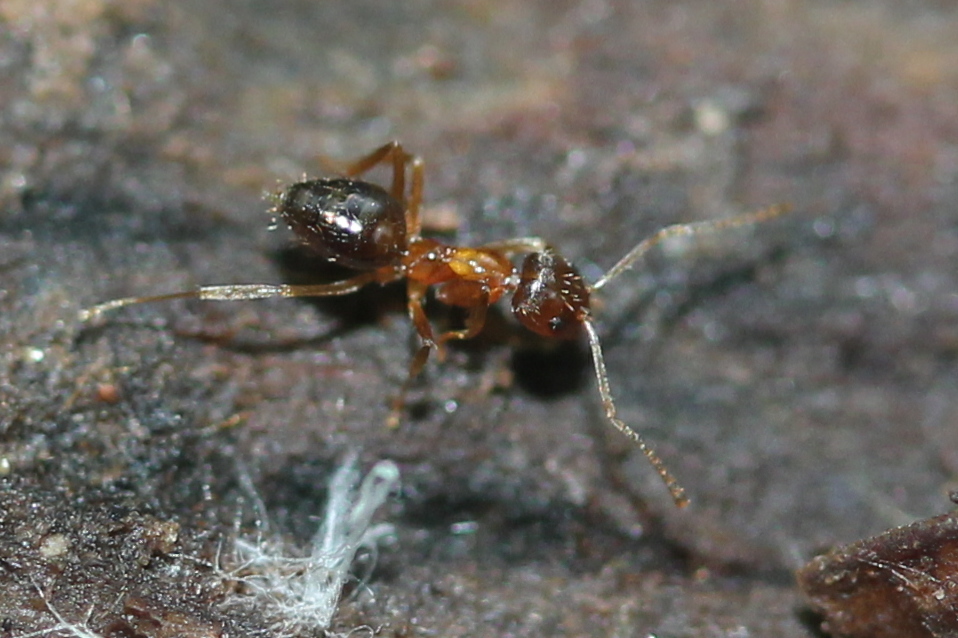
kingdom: Animalia
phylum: Arthropoda
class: Insecta
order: Hymenoptera
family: Formicidae
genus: Paratrechina
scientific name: Paratrechina flavipes
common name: Eastern asian formicine ant
